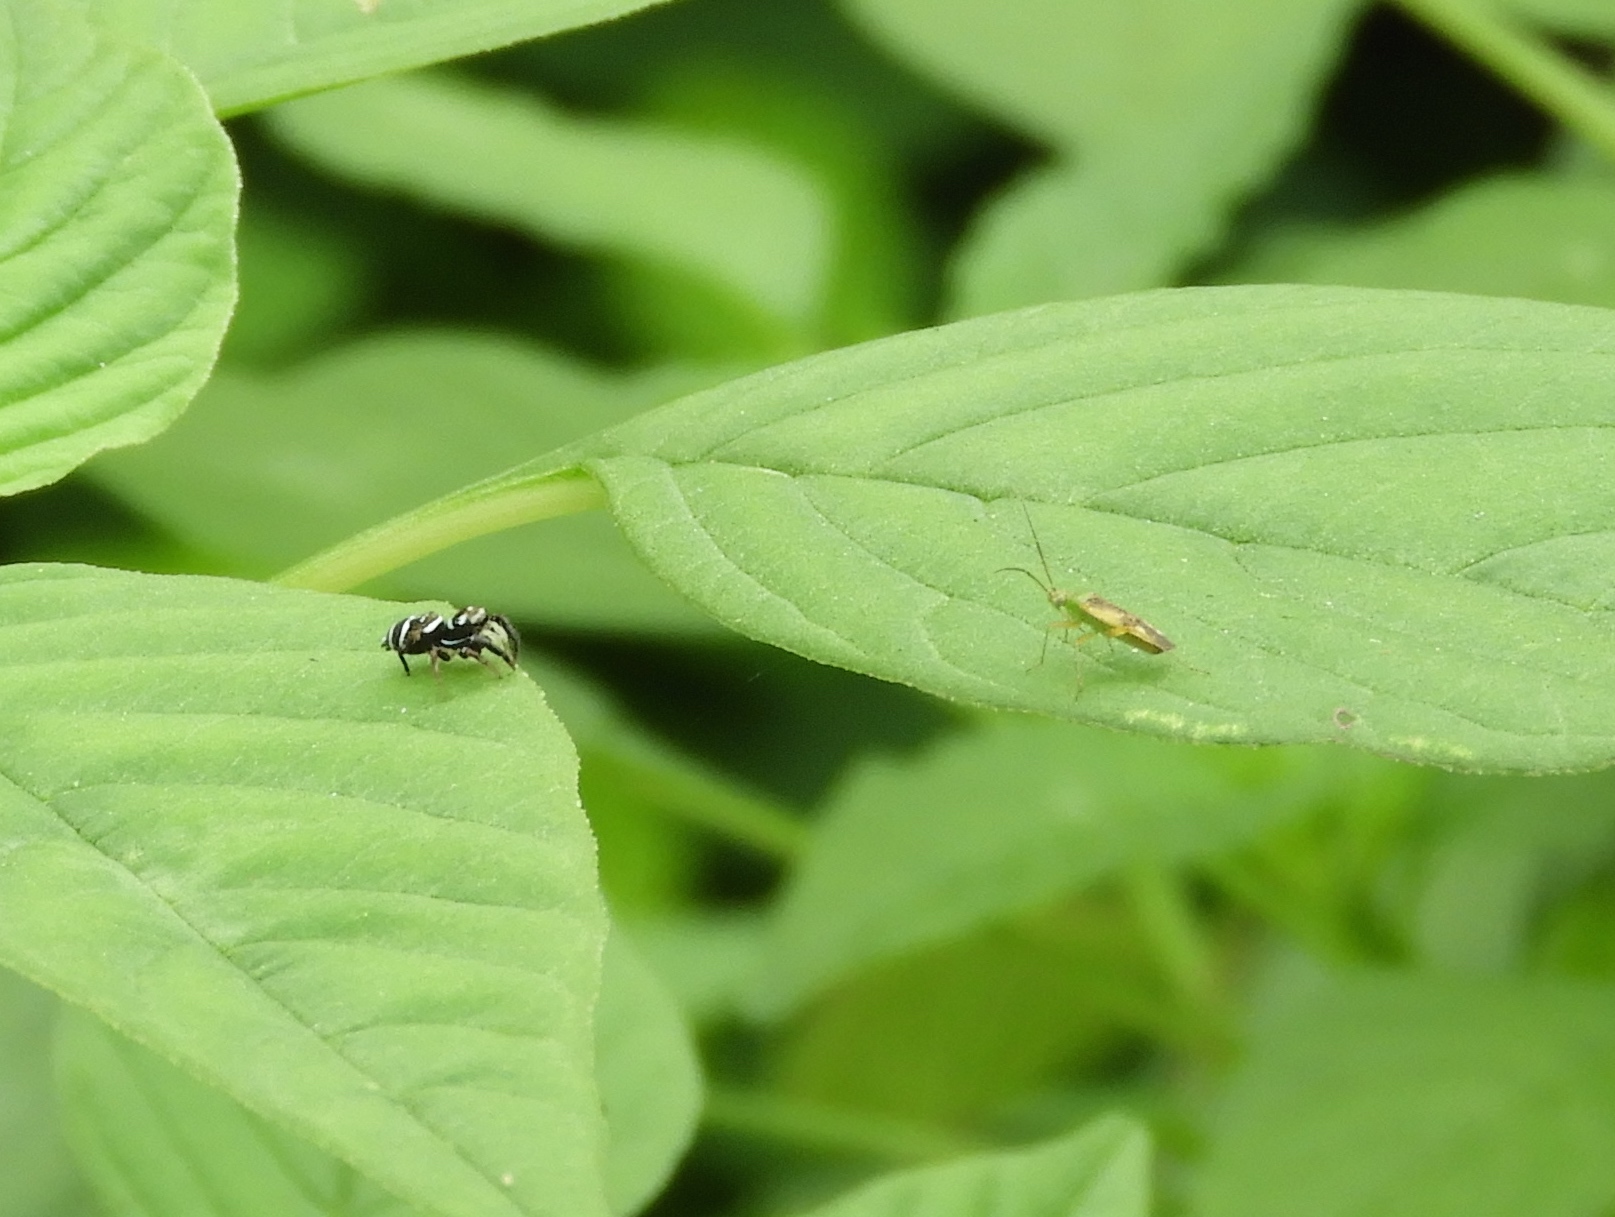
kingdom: Animalia
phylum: Arthropoda
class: Insecta
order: Hemiptera
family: Miridae
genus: Reuteroscopus
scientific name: Reuteroscopus
